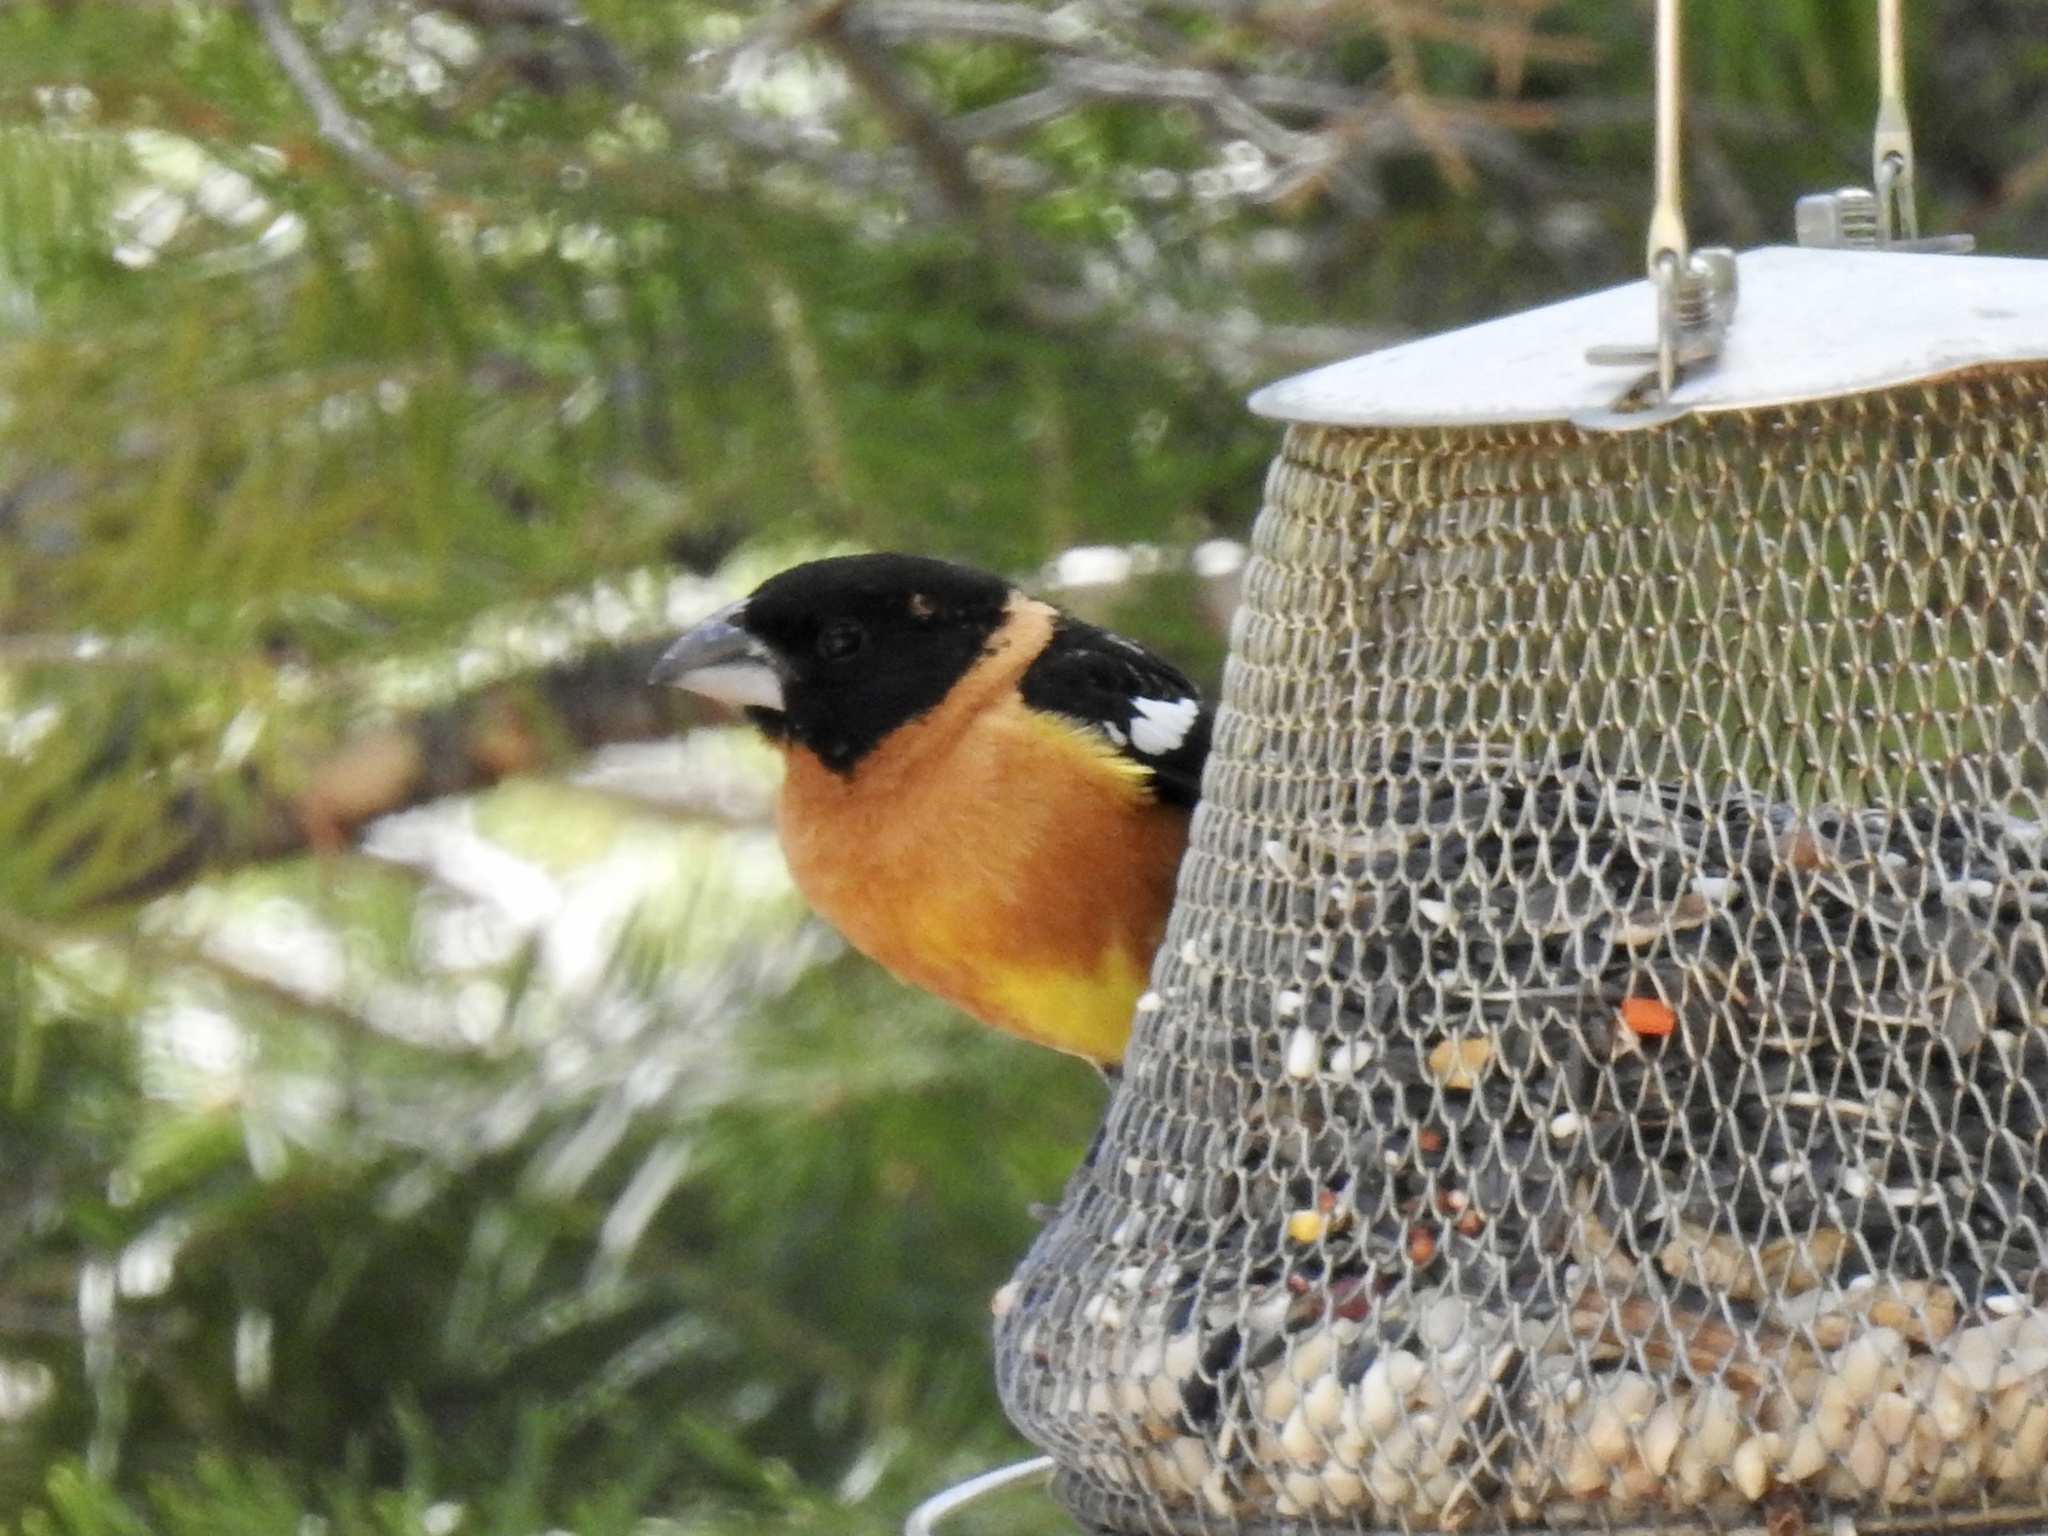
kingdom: Animalia
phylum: Chordata
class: Aves
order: Passeriformes
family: Cardinalidae
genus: Pheucticus
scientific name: Pheucticus melanocephalus
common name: Black-headed grosbeak
